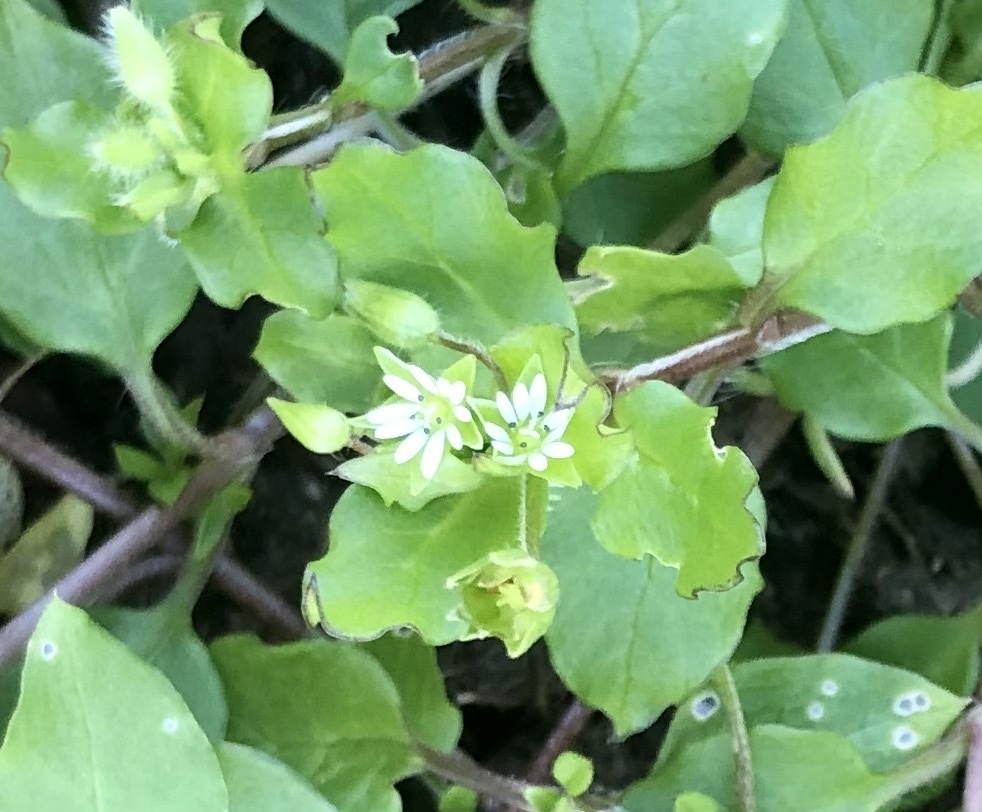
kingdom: Plantae
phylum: Tracheophyta
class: Magnoliopsida
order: Caryophyllales
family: Caryophyllaceae
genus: Stellaria
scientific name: Stellaria media
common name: Common chickweed
